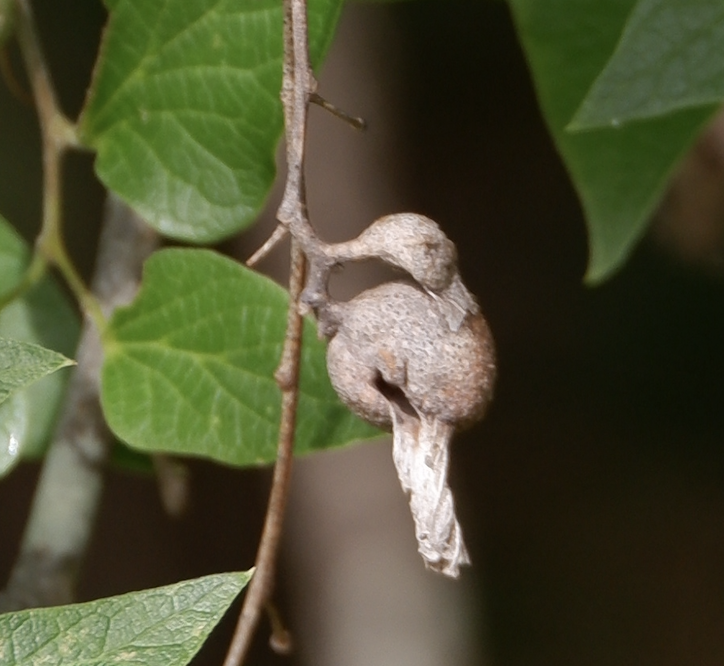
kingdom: Animalia
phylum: Arthropoda
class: Insecta
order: Hemiptera
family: Aphalaridae
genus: Pachypsylla
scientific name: Pachypsylla venusta
